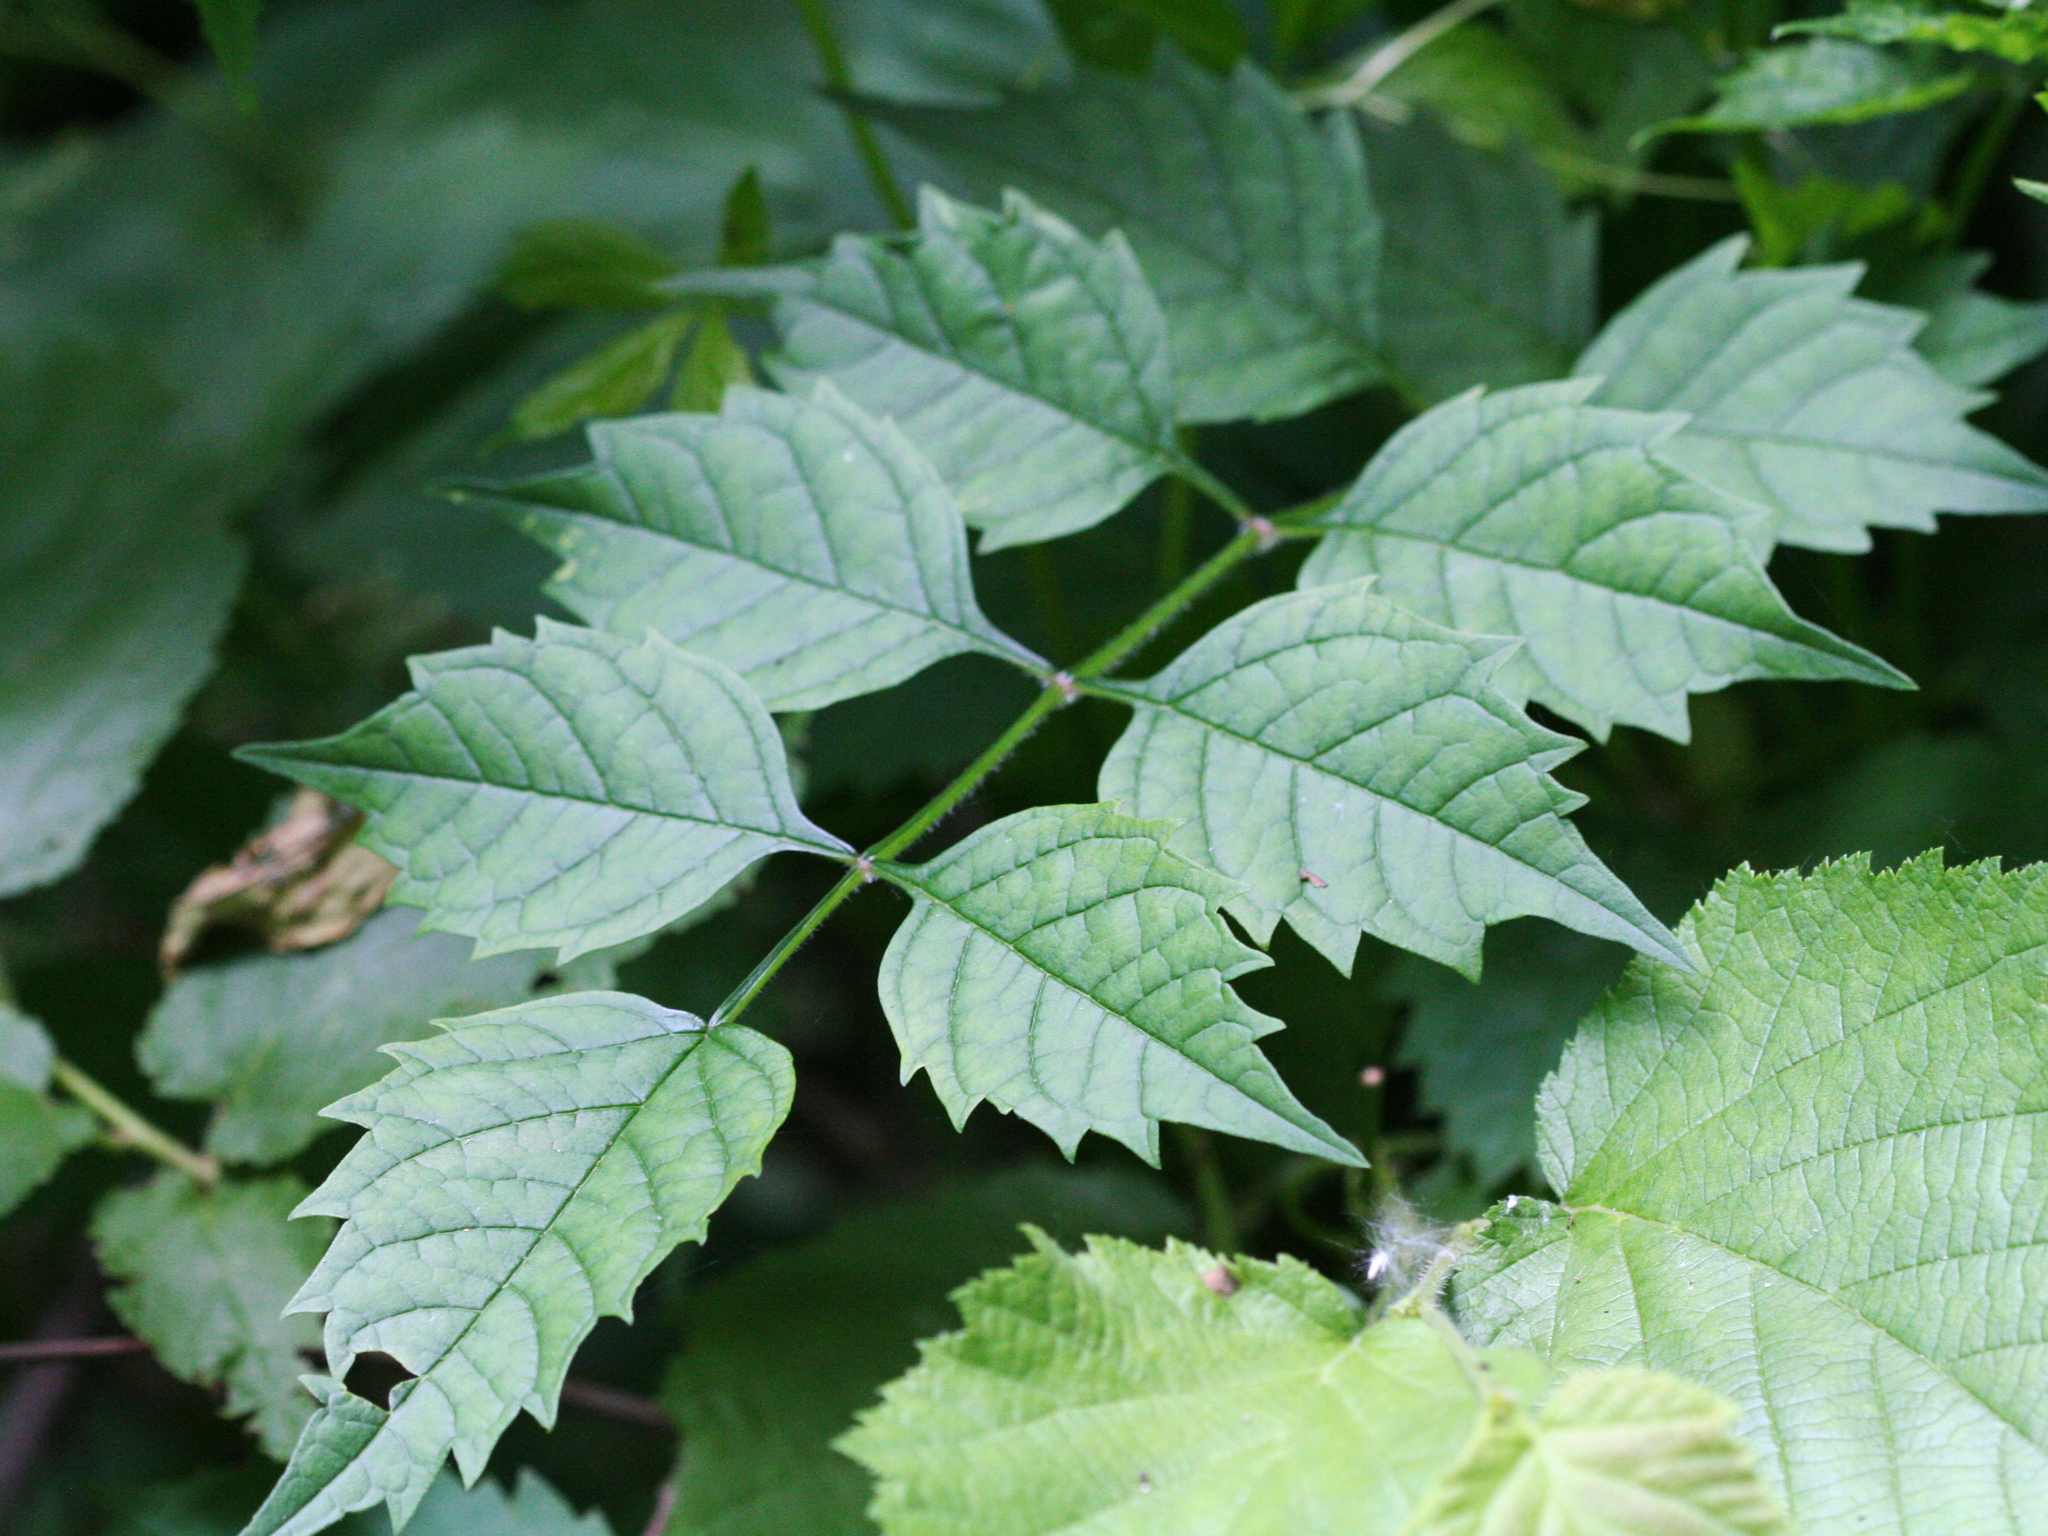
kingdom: Plantae
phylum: Tracheophyta
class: Magnoliopsida
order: Lamiales
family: Bignoniaceae
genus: Campsis
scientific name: Campsis radicans
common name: Trumpet-creeper
